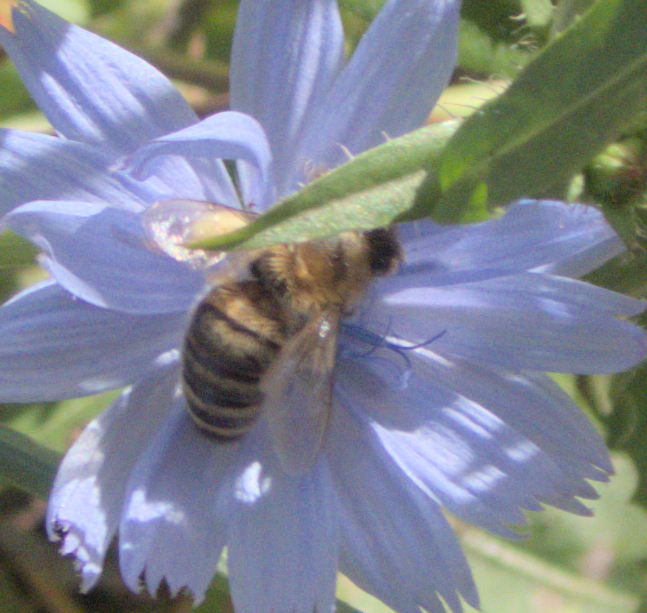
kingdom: Animalia
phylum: Arthropoda
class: Insecta
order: Hymenoptera
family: Apidae
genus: Apis
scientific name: Apis mellifera
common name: Honey bee
